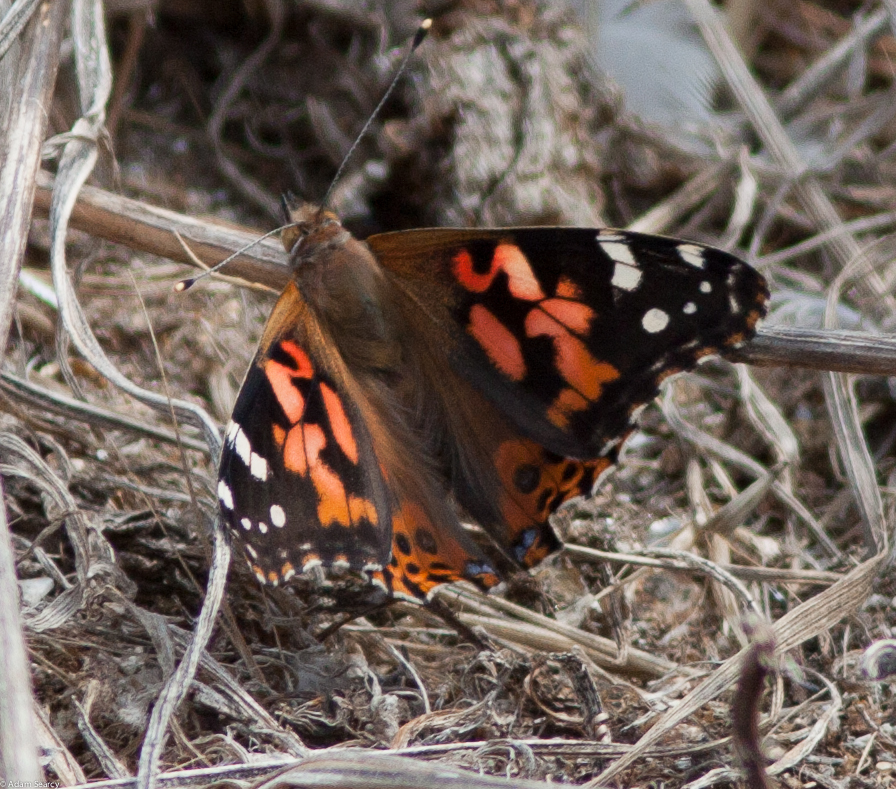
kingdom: Animalia
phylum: Arthropoda
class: Insecta
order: Lepidoptera
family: Nymphalidae
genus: Vanessa
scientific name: Vanessa cardui
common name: Painted lady
